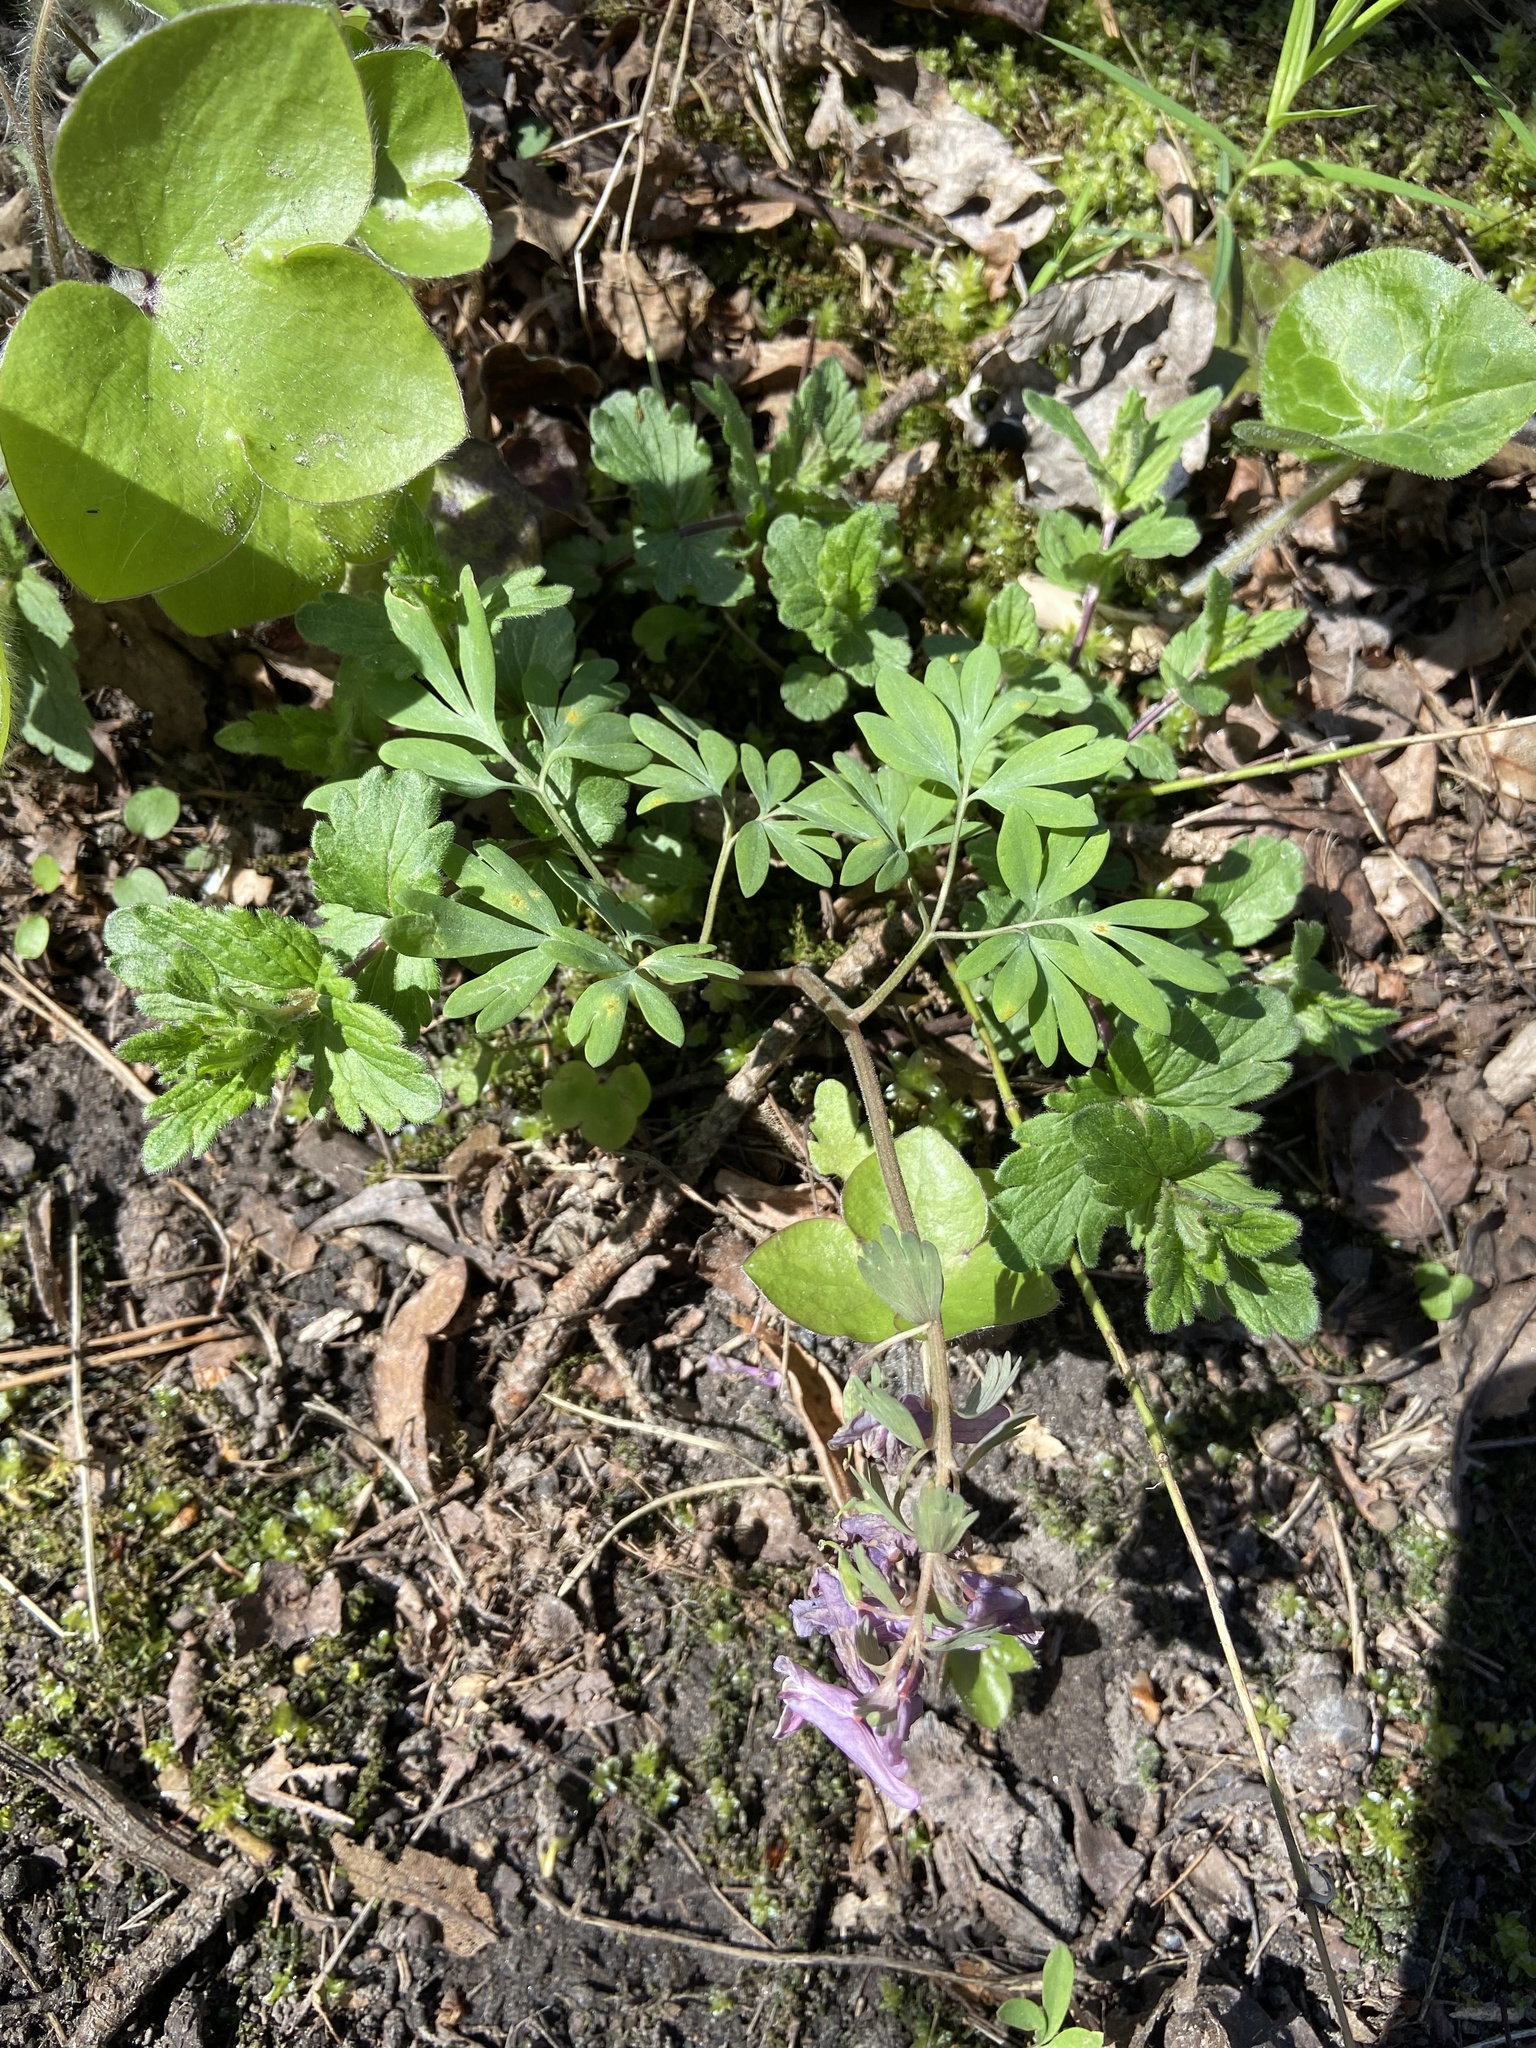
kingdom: Plantae
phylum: Tracheophyta
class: Magnoliopsida
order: Ranunculales
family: Papaveraceae
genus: Corydalis
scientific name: Corydalis solida
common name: Bird-in-a-bush
